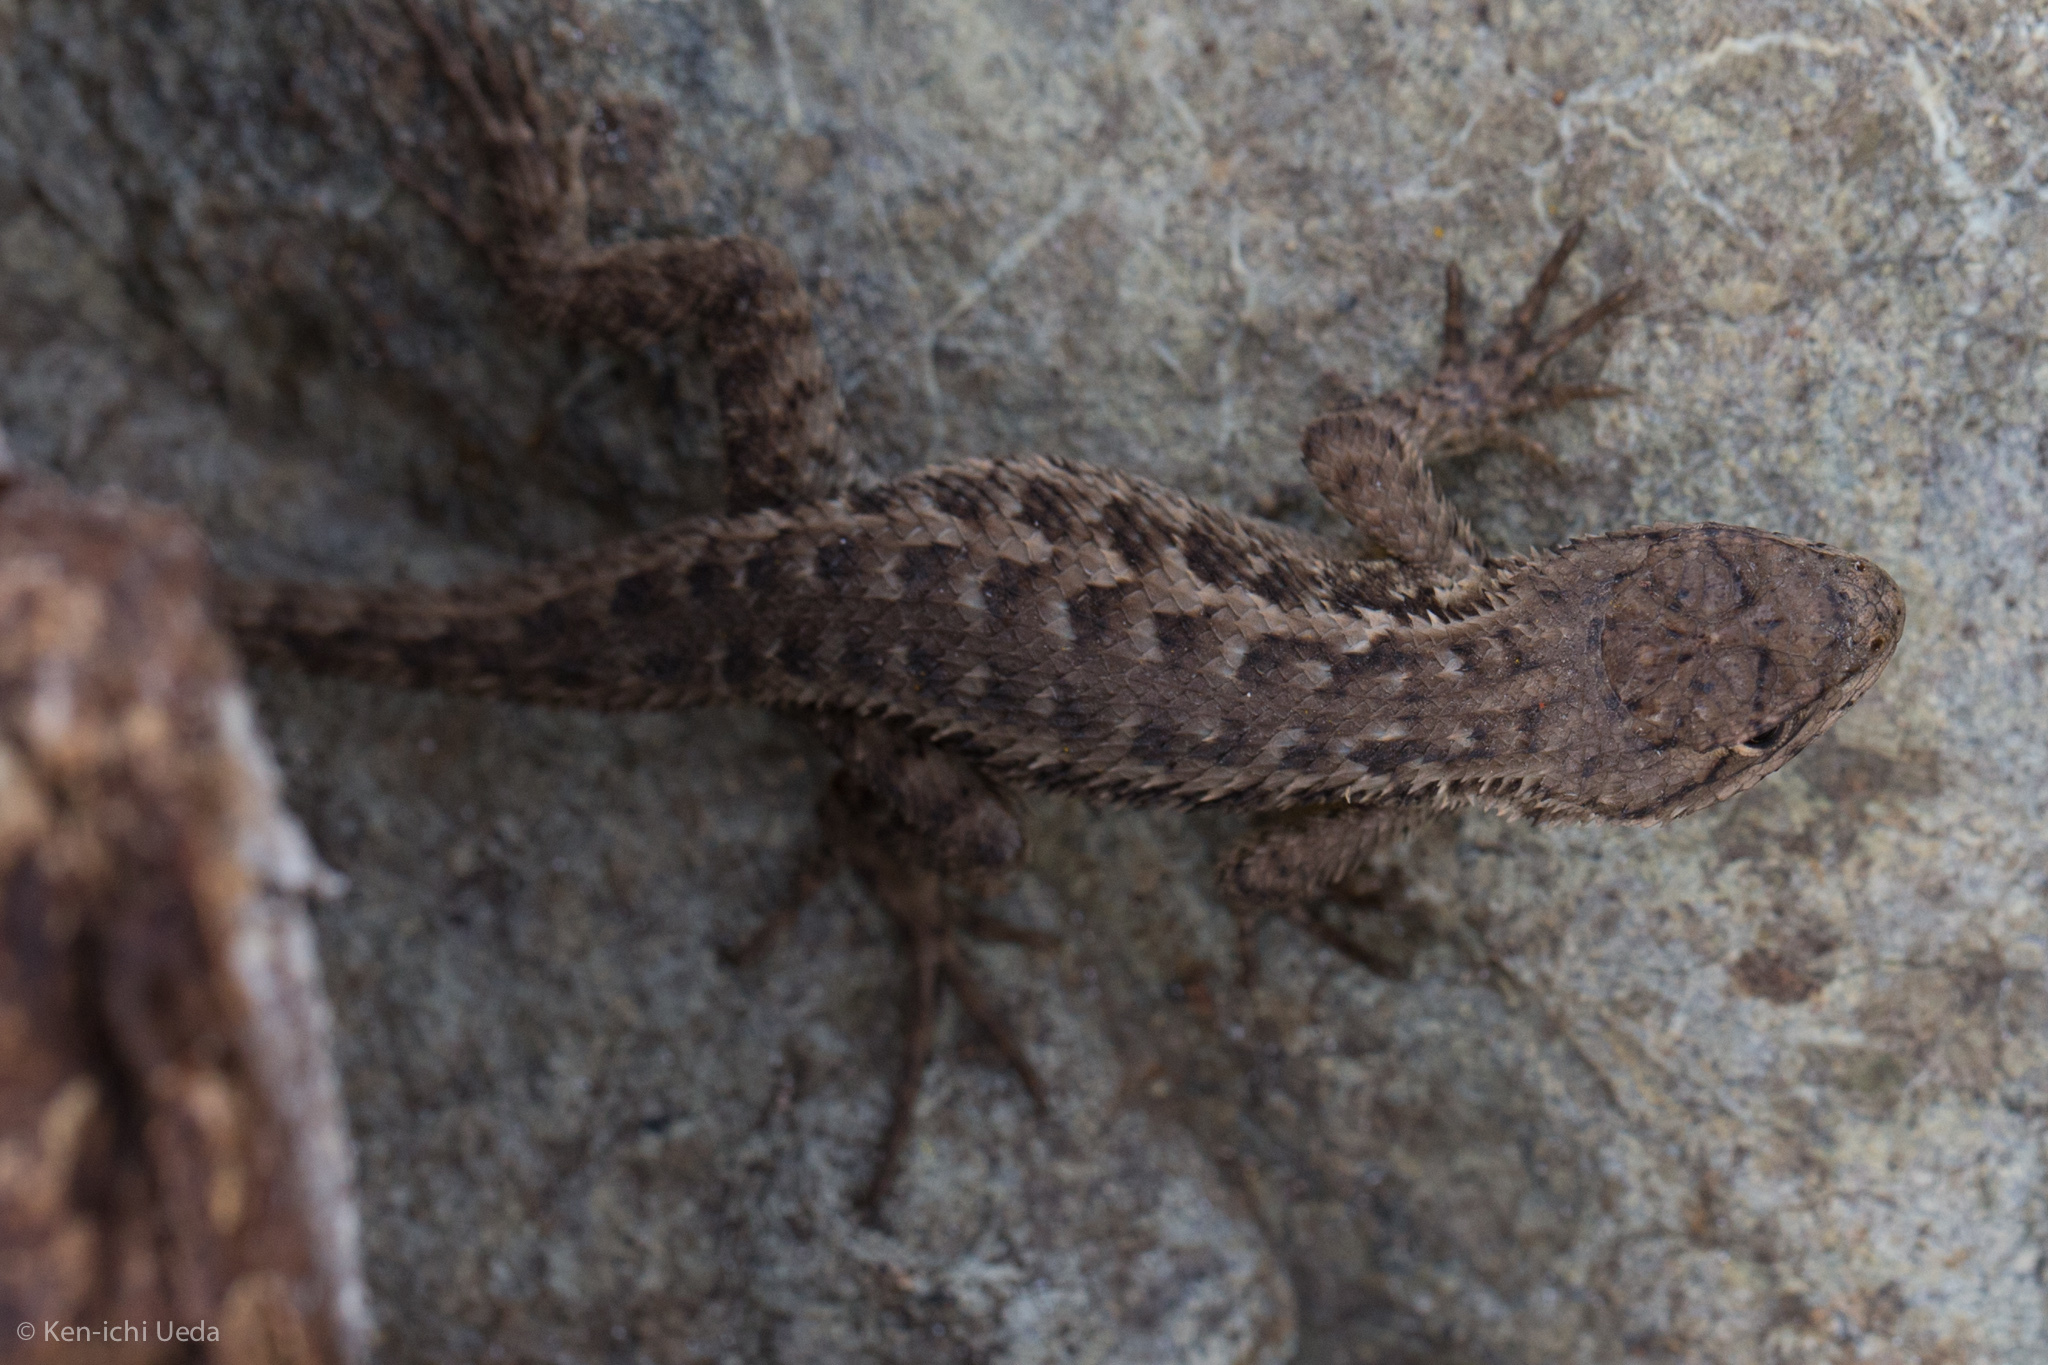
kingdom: Animalia
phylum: Chordata
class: Squamata
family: Phrynosomatidae
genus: Sceloporus
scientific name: Sceloporus occidentalis
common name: Western fence lizard
